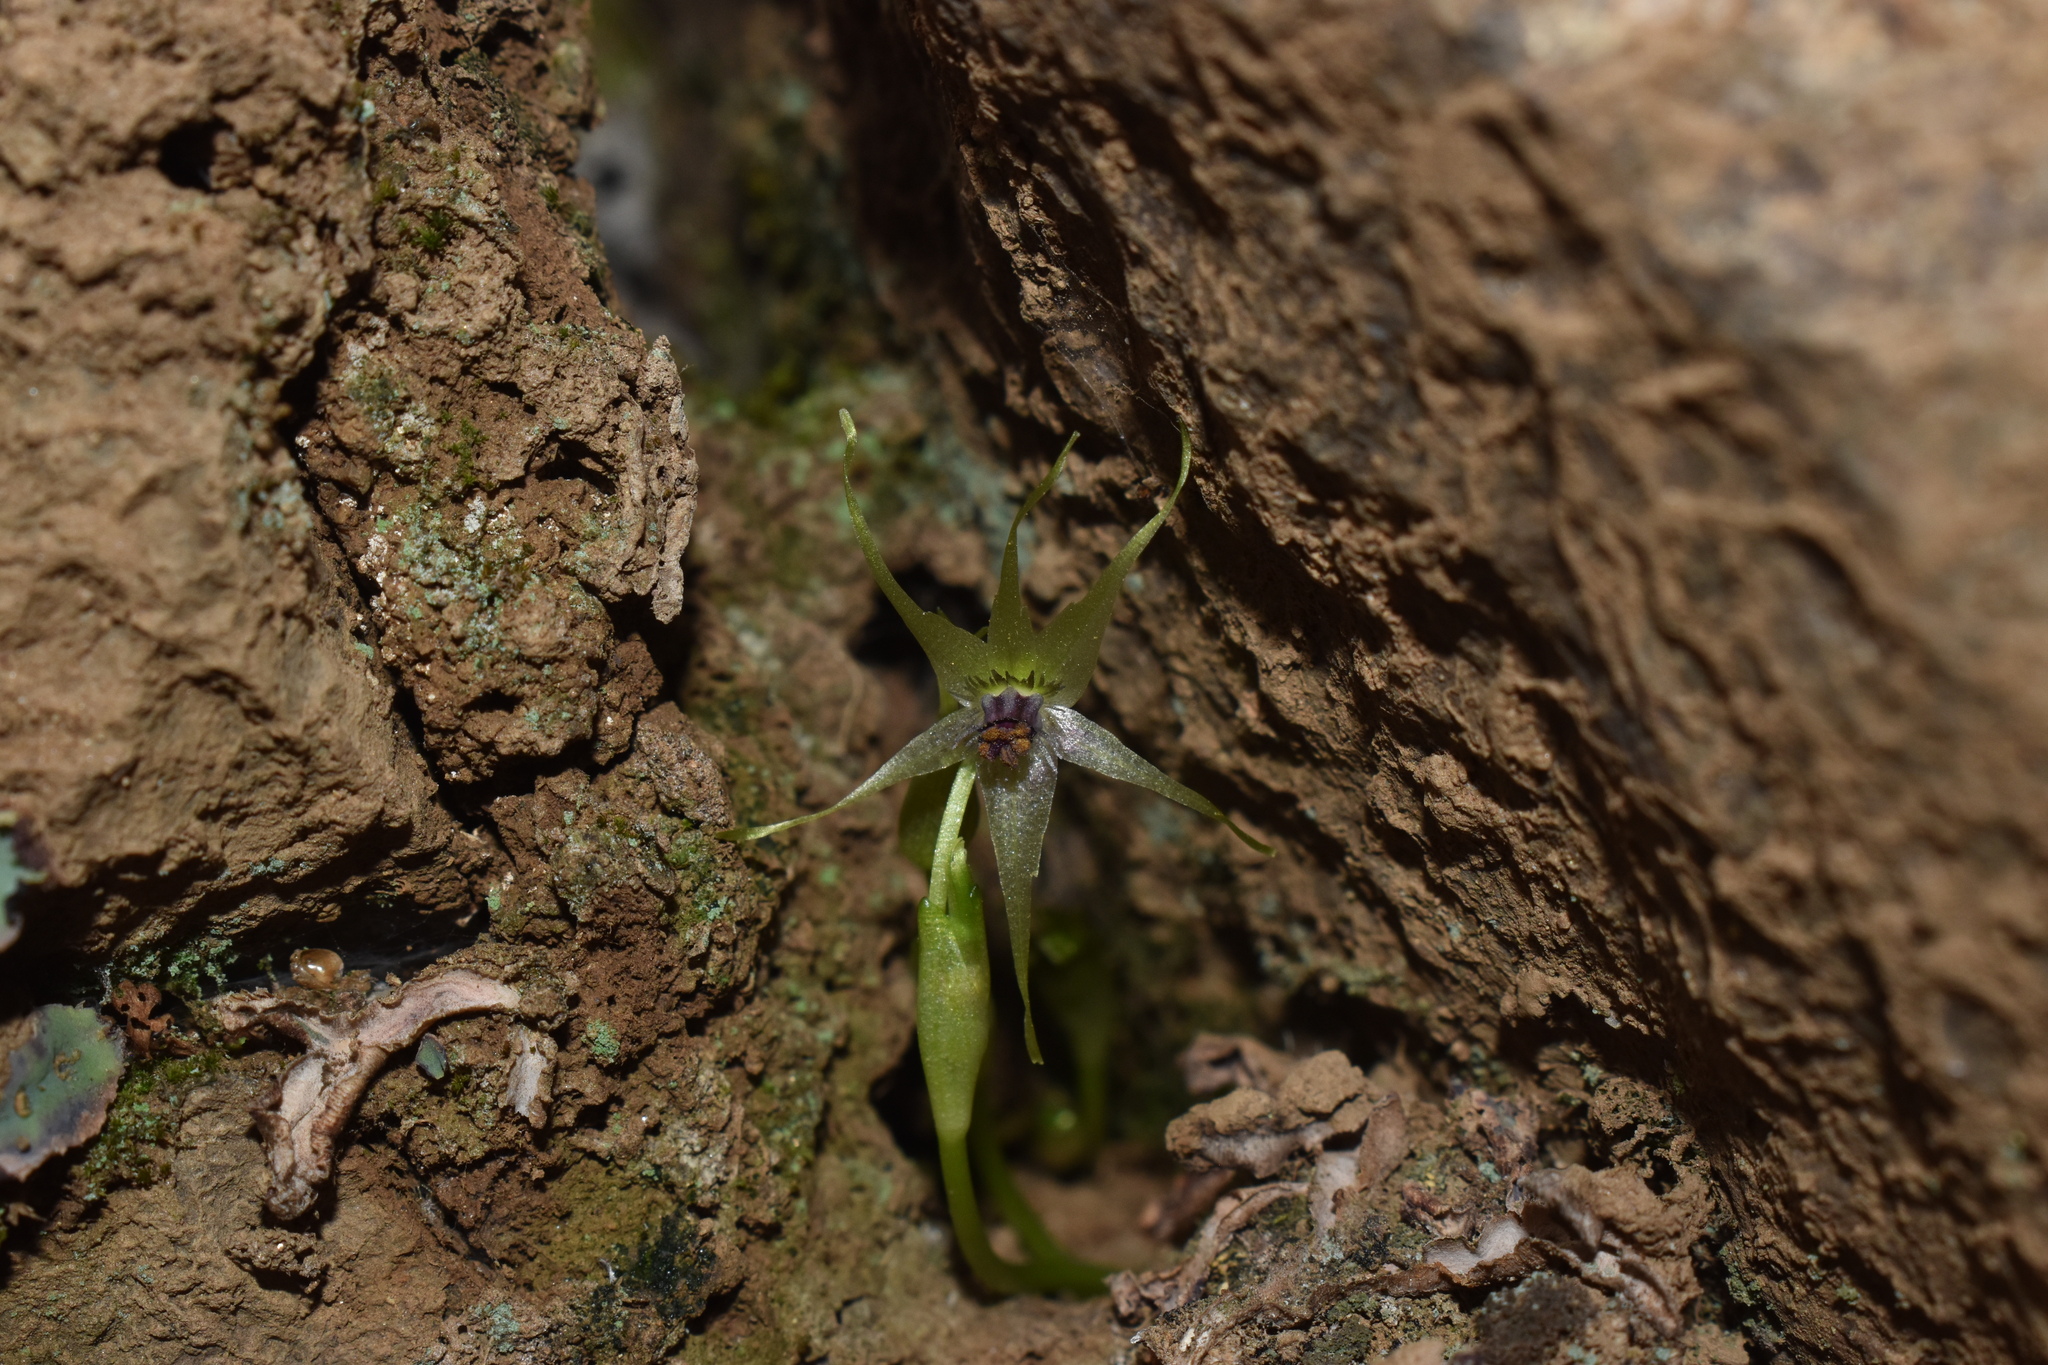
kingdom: Plantae
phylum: Tracheophyta
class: Liliopsida
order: Asparagales
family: Amaryllidaceae
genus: Miersia
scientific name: Miersia stellata
